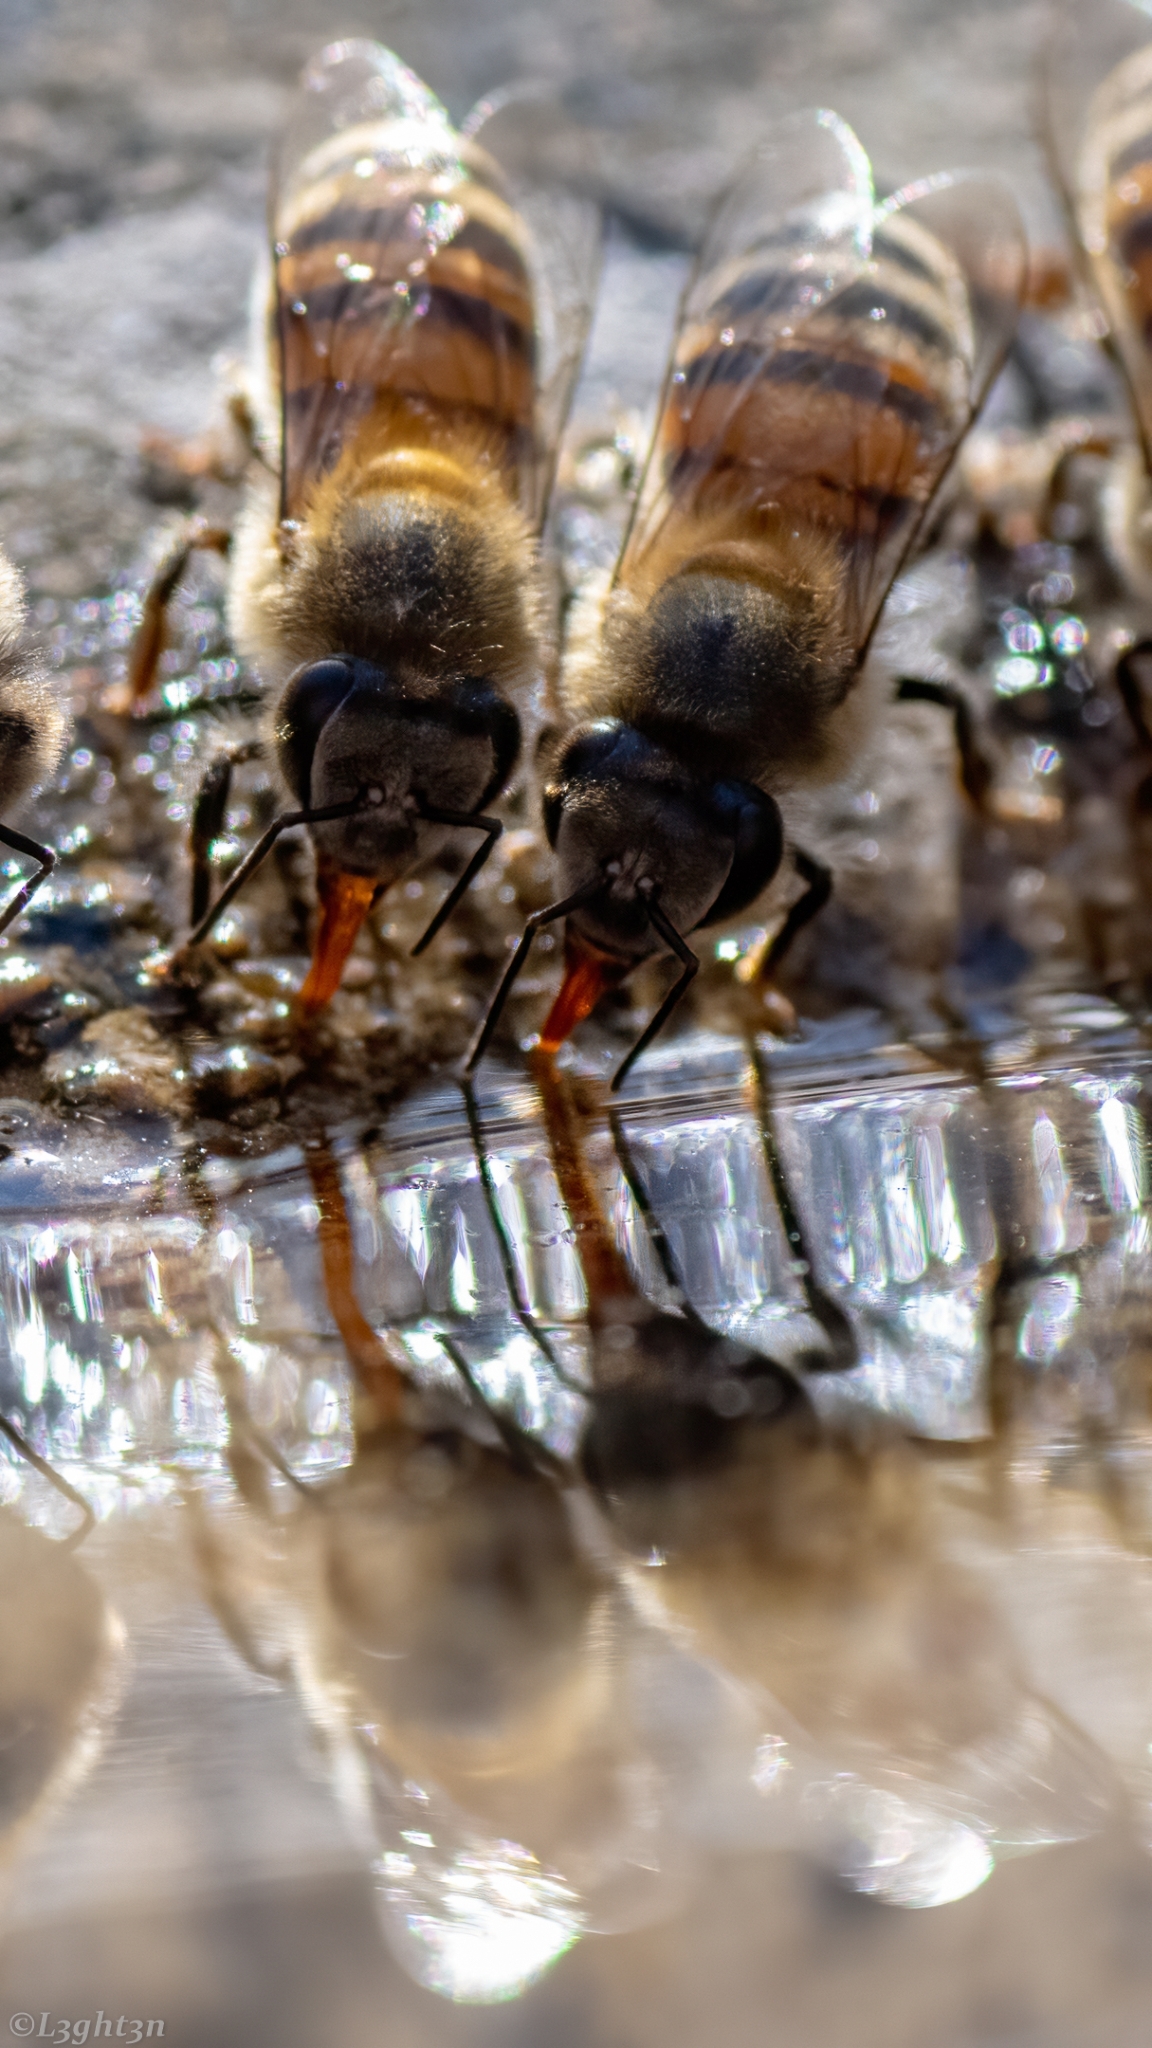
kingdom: Animalia
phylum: Arthropoda
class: Insecta
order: Hymenoptera
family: Apidae
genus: Apis
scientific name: Apis mellifera
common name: Honey bee
